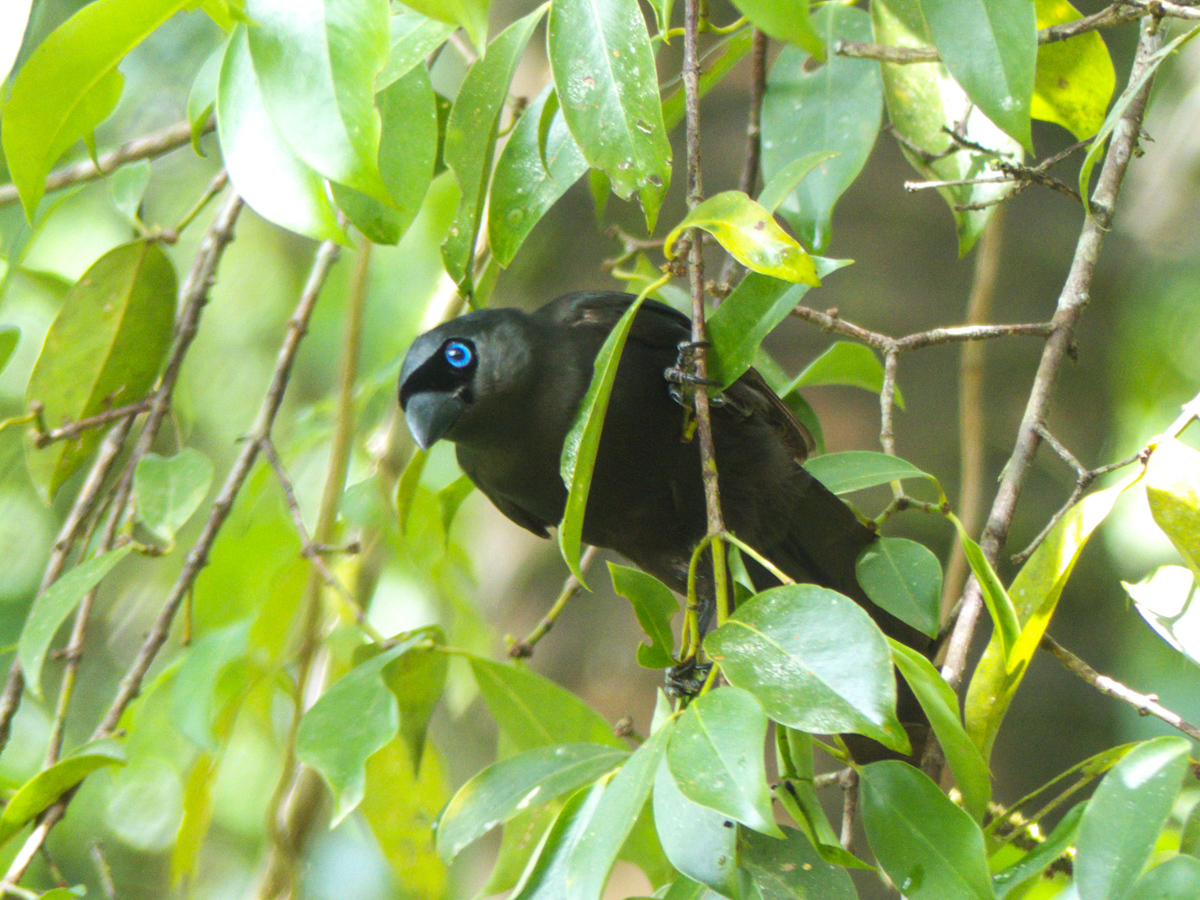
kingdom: Animalia
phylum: Chordata
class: Aves
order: Passeriformes
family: Corvidae
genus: Crypsirina
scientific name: Crypsirina temia
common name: Racket-tailed treepie
